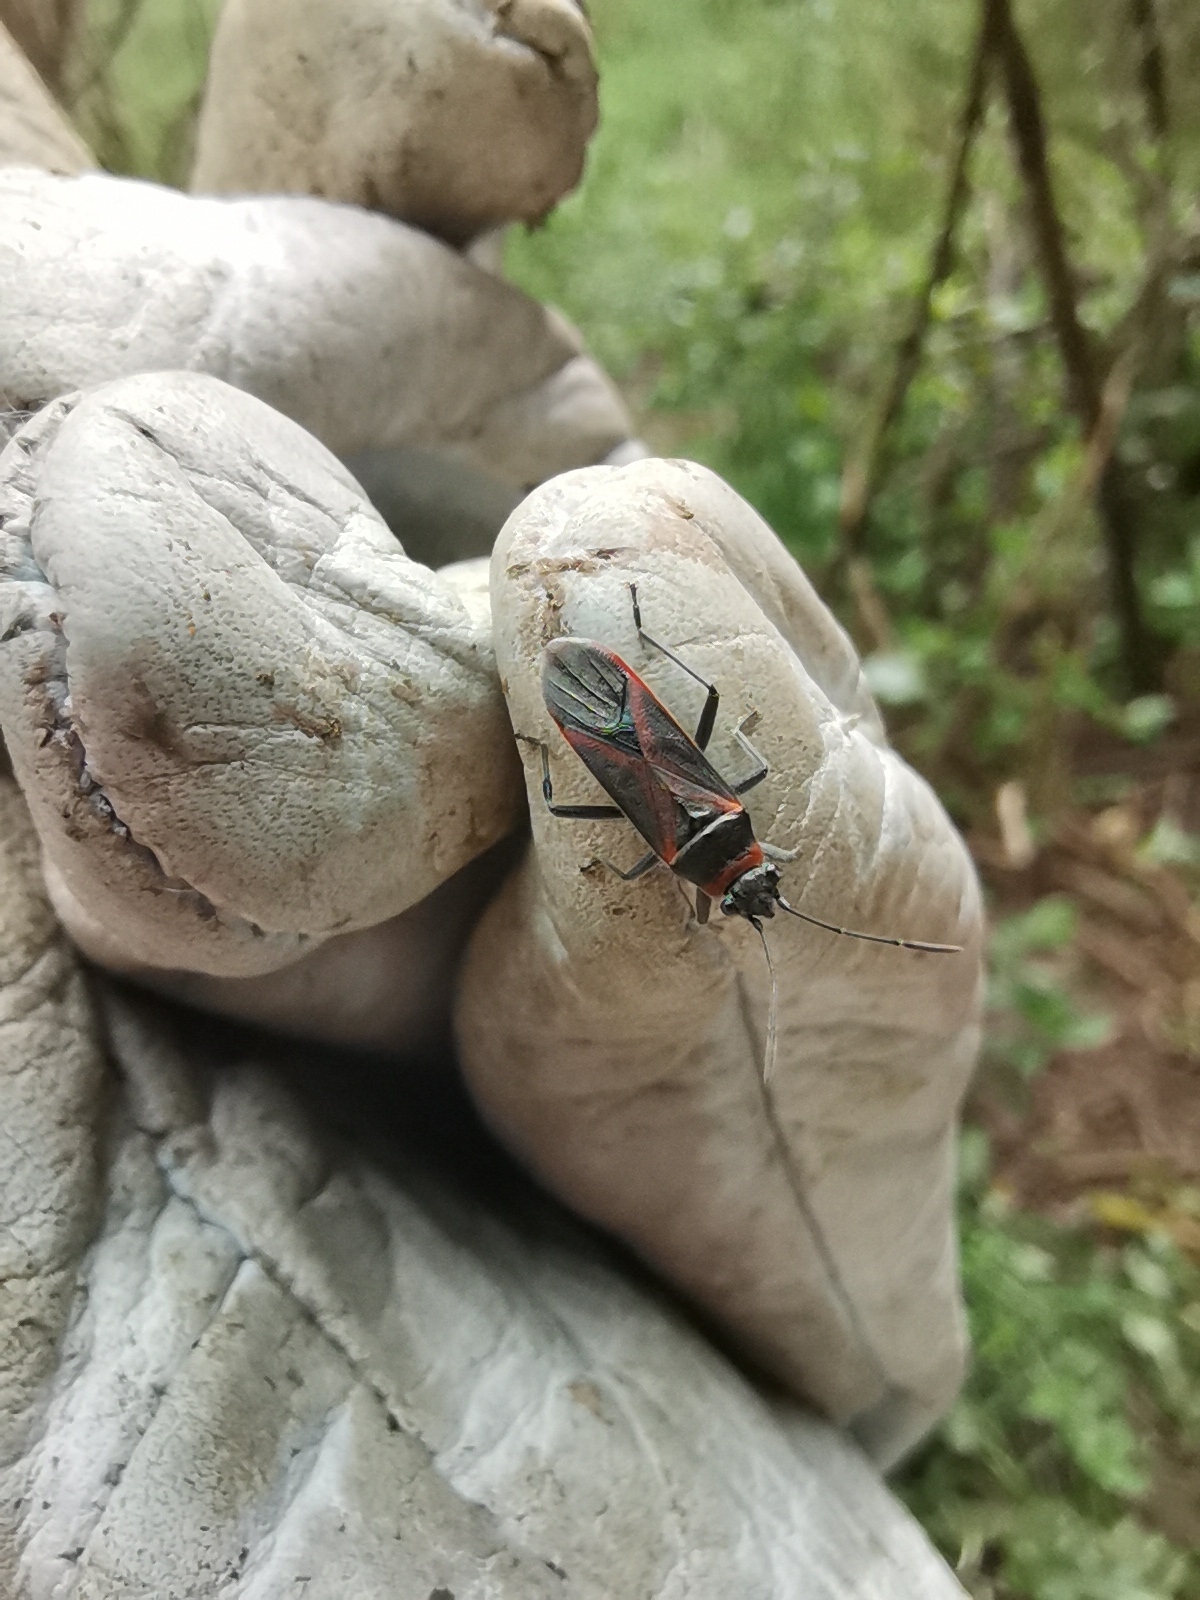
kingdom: Animalia
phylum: Arthropoda
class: Insecta
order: Hemiptera
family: Lygaeidae
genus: Arocatus
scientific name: Arocatus rusticus
